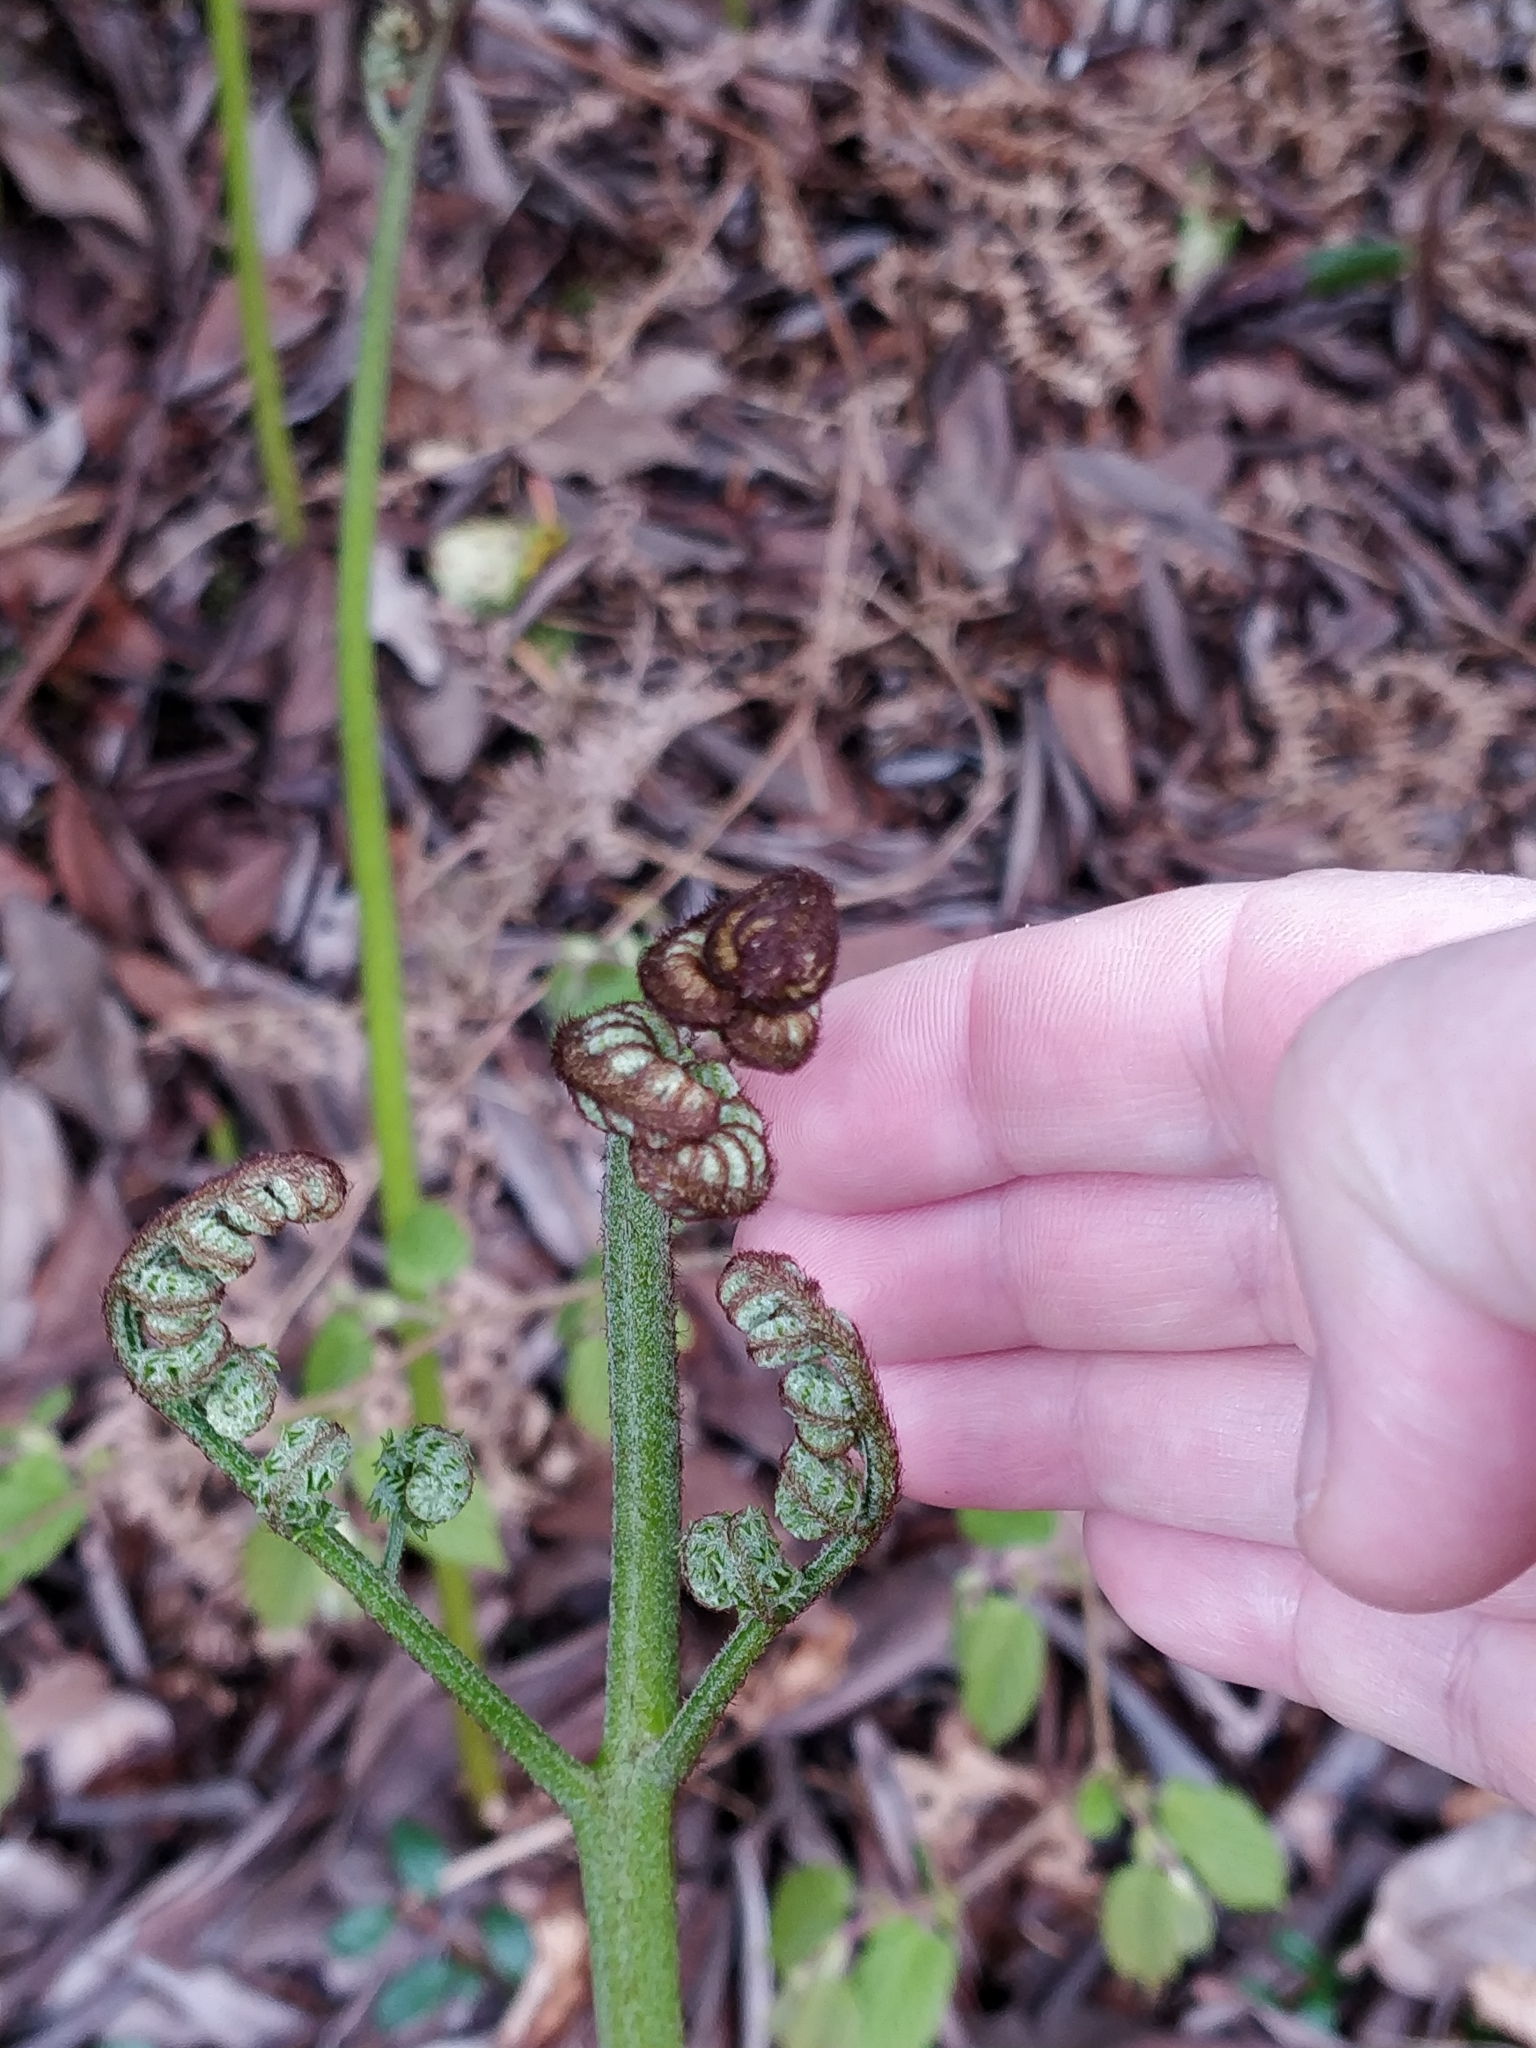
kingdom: Plantae
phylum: Tracheophyta
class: Polypodiopsida
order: Polypodiales
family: Dennstaedtiaceae
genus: Pteridium
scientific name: Pteridium aquilinum
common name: Bracken
